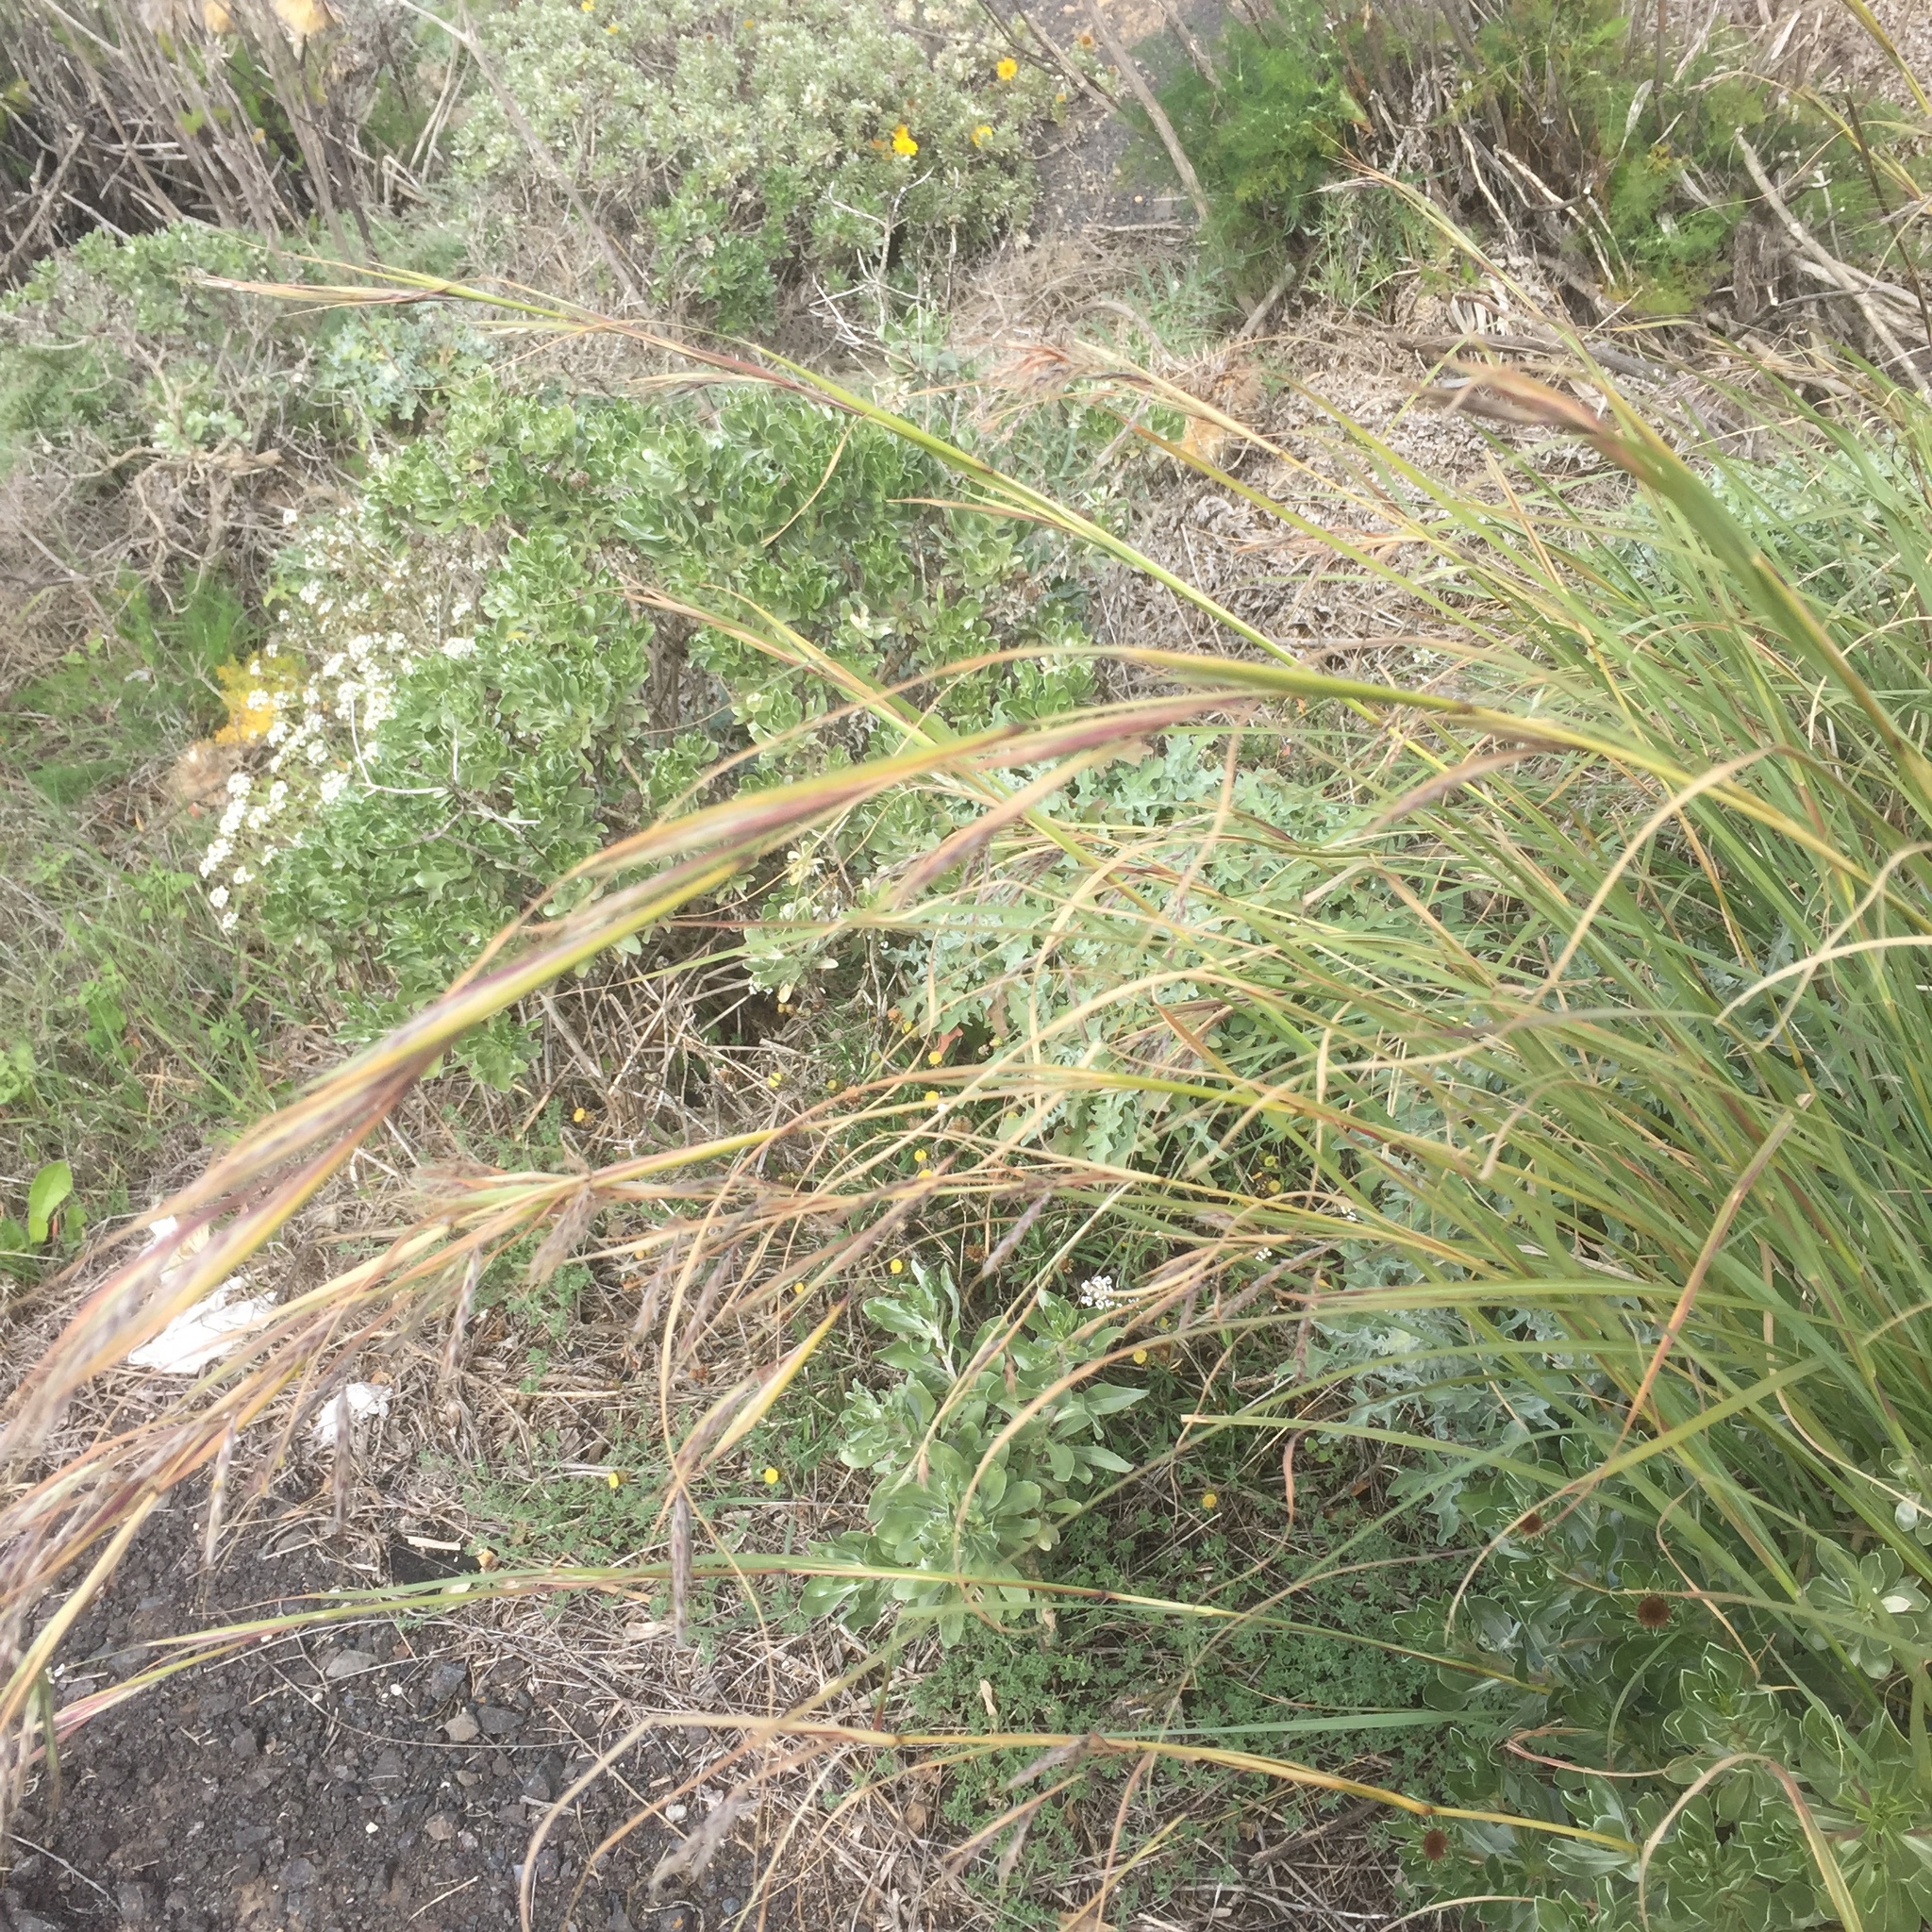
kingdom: Plantae
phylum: Tracheophyta
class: Liliopsida
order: Poales
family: Poaceae
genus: Hyparrhenia
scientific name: Hyparrhenia hirta
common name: Thatching grass
